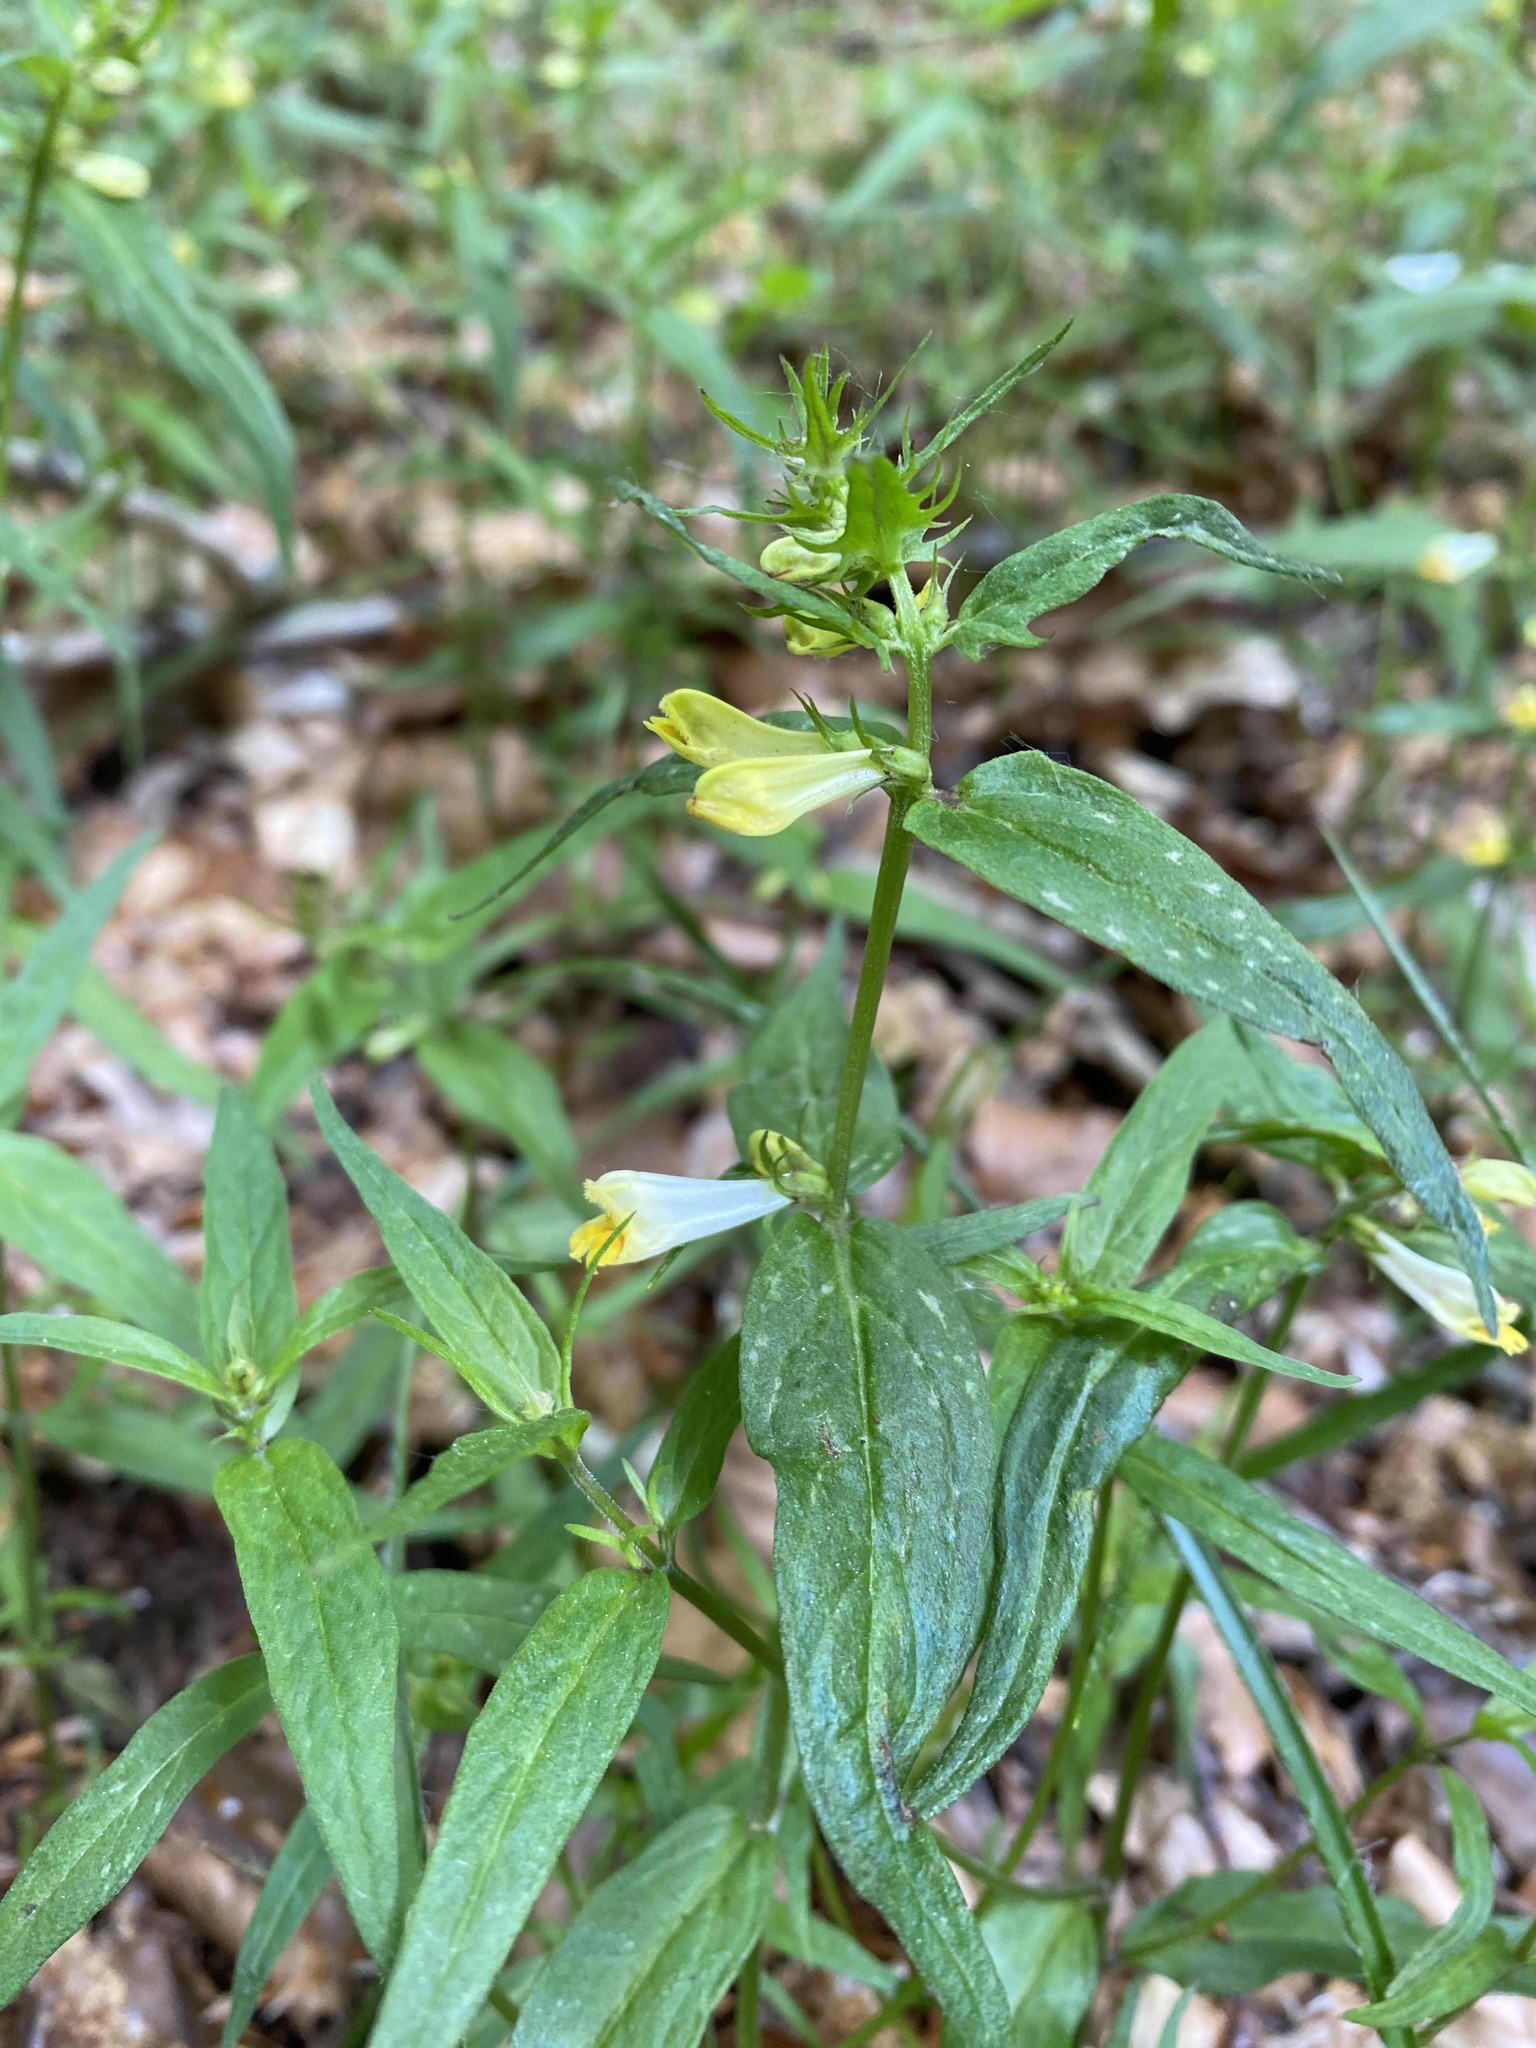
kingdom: Plantae
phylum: Tracheophyta
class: Magnoliopsida
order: Lamiales
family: Orobanchaceae
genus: Melampyrum
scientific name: Melampyrum pratense
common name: Common cow-wheat
